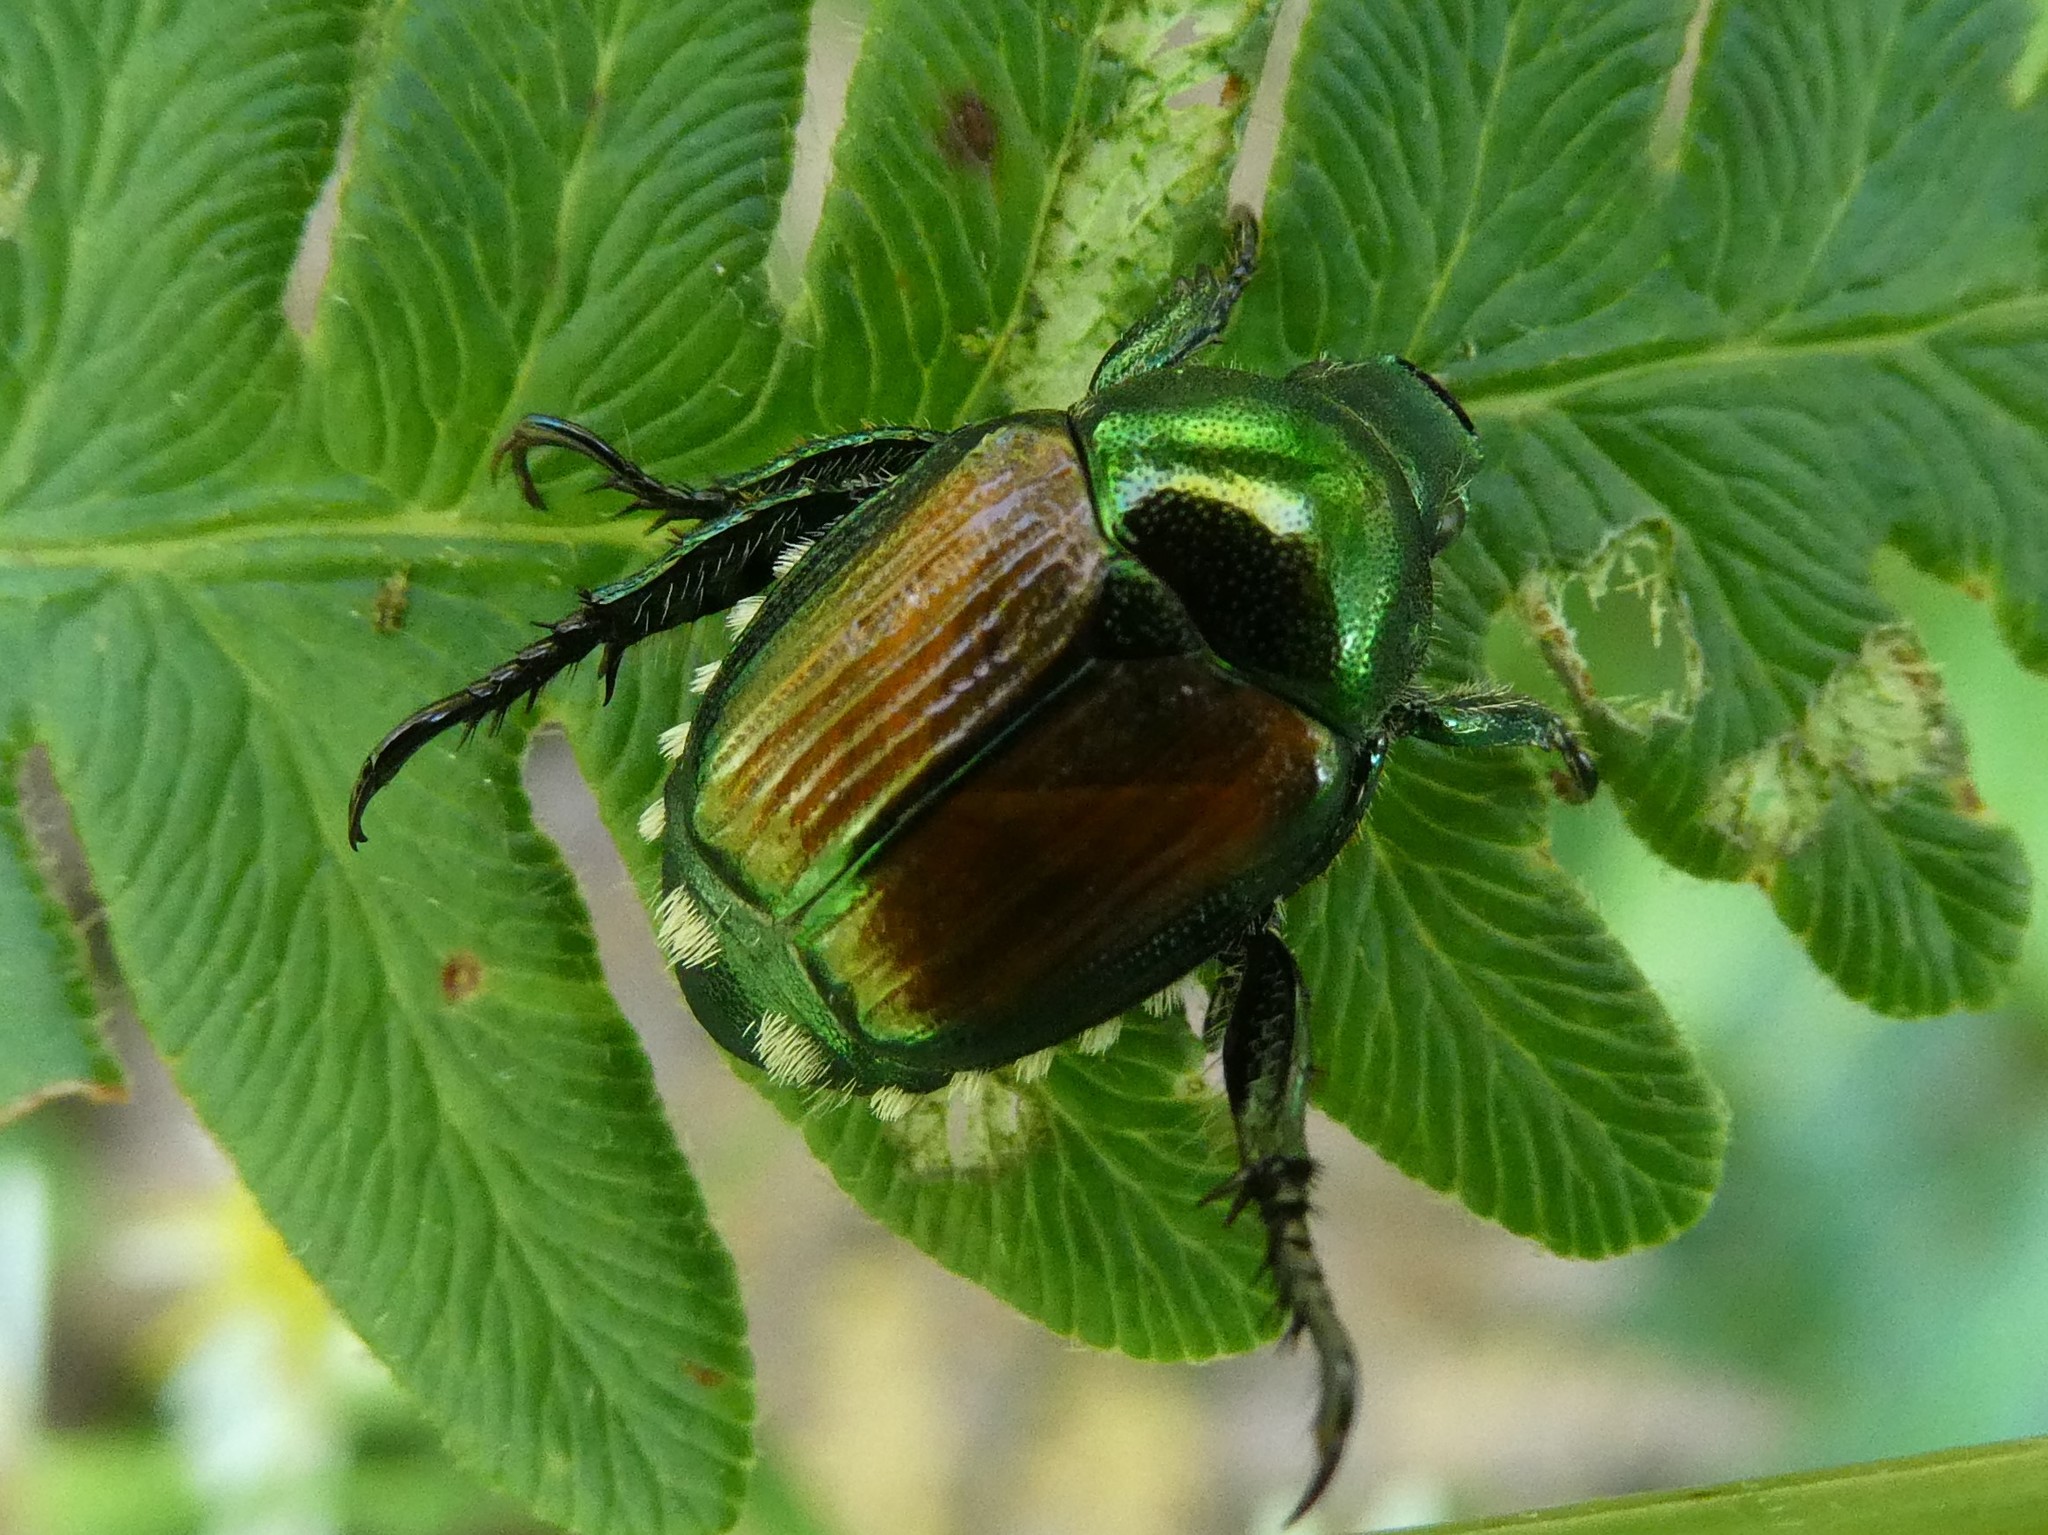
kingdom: Animalia
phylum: Arthropoda
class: Insecta
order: Coleoptera
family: Scarabaeidae
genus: Popillia
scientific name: Popillia japonica
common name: Japanese beetle
